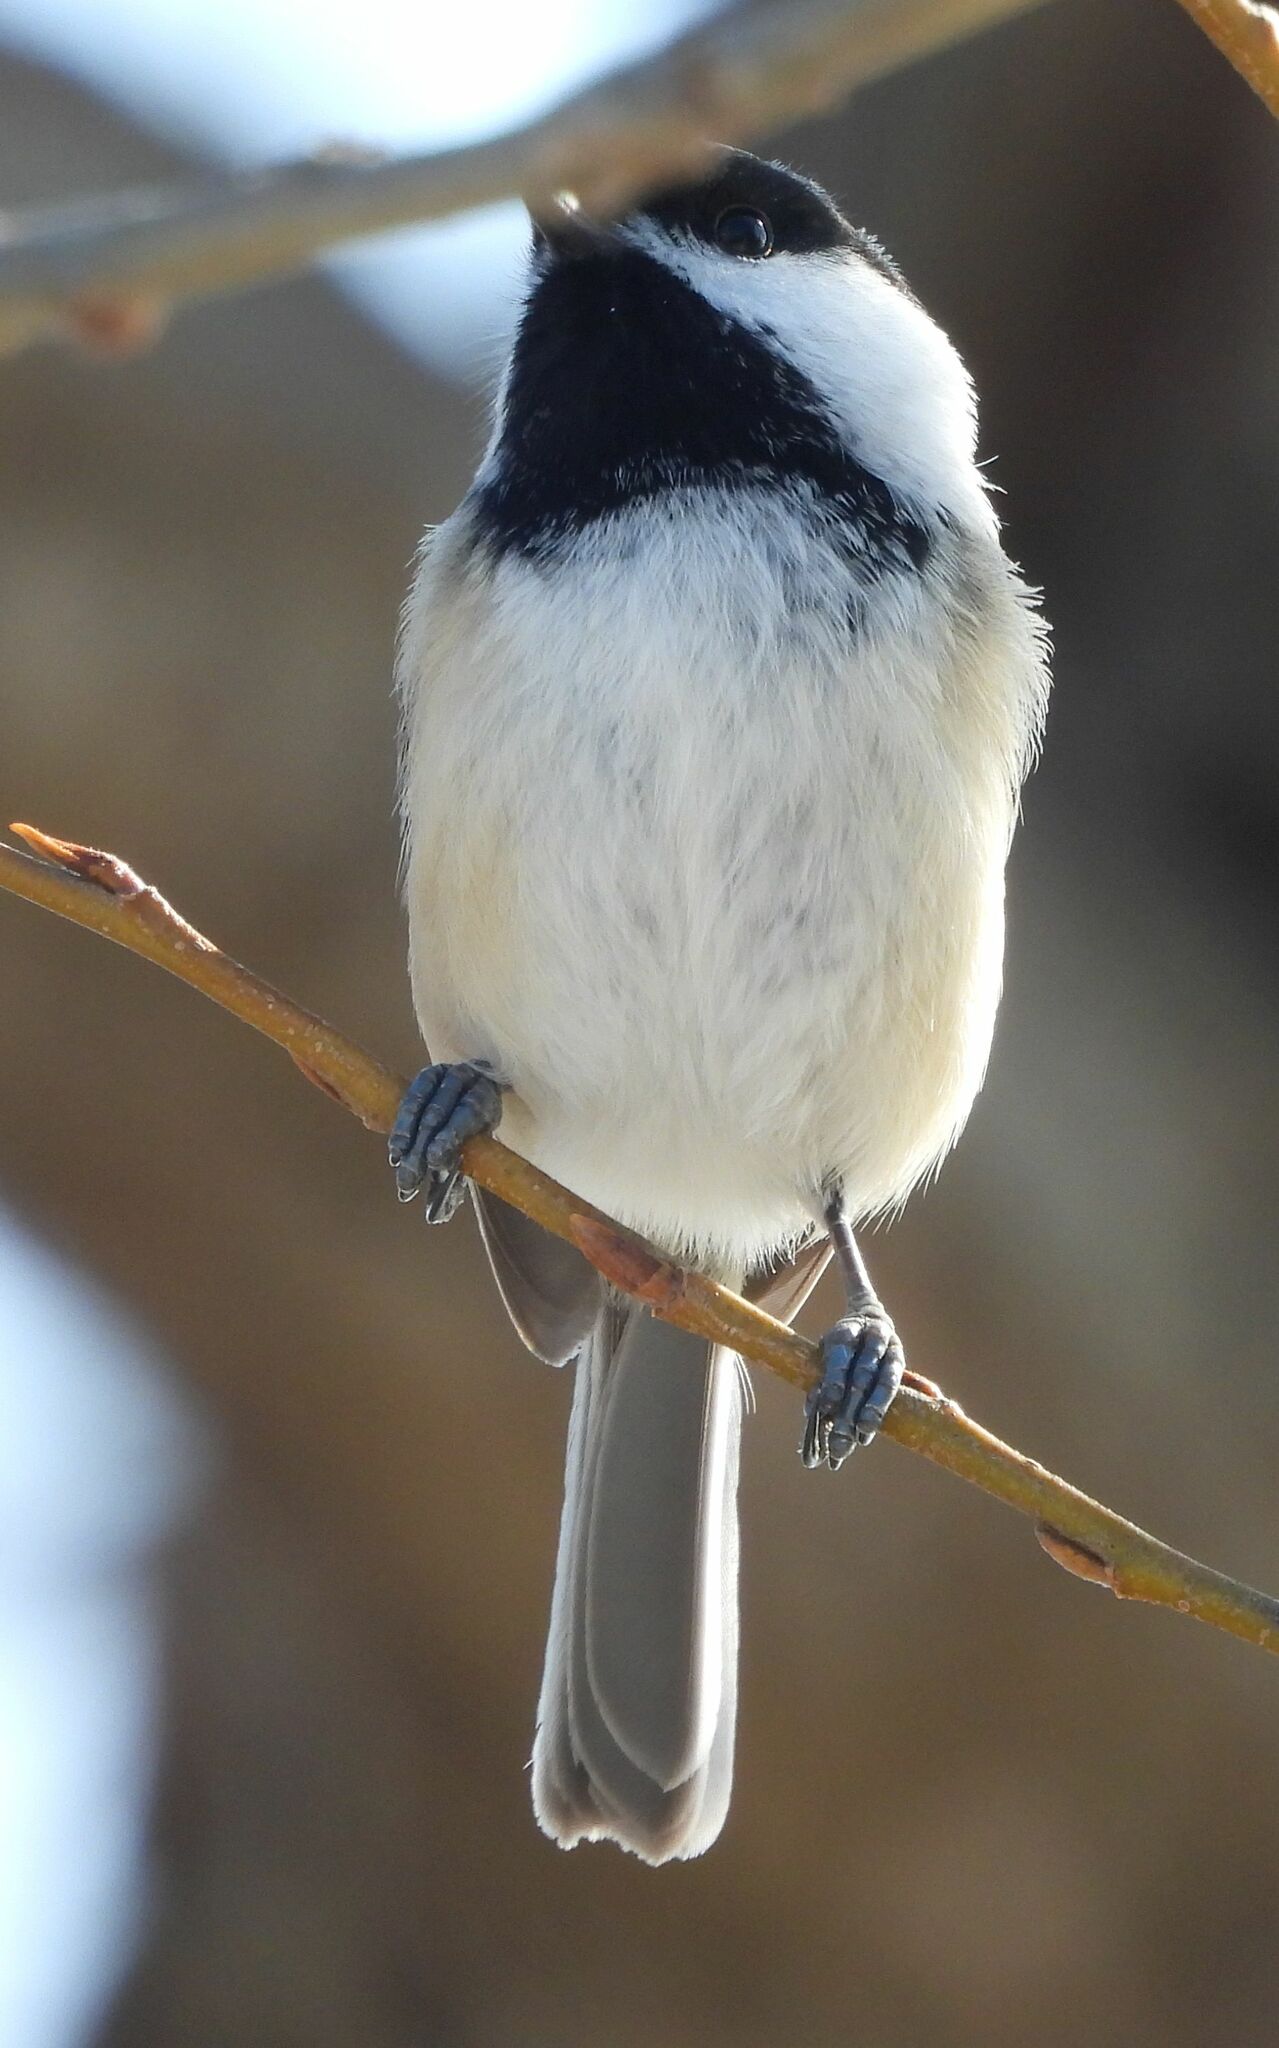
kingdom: Animalia
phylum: Chordata
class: Aves
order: Passeriformes
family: Paridae
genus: Poecile
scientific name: Poecile atricapillus
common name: Black-capped chickadee
